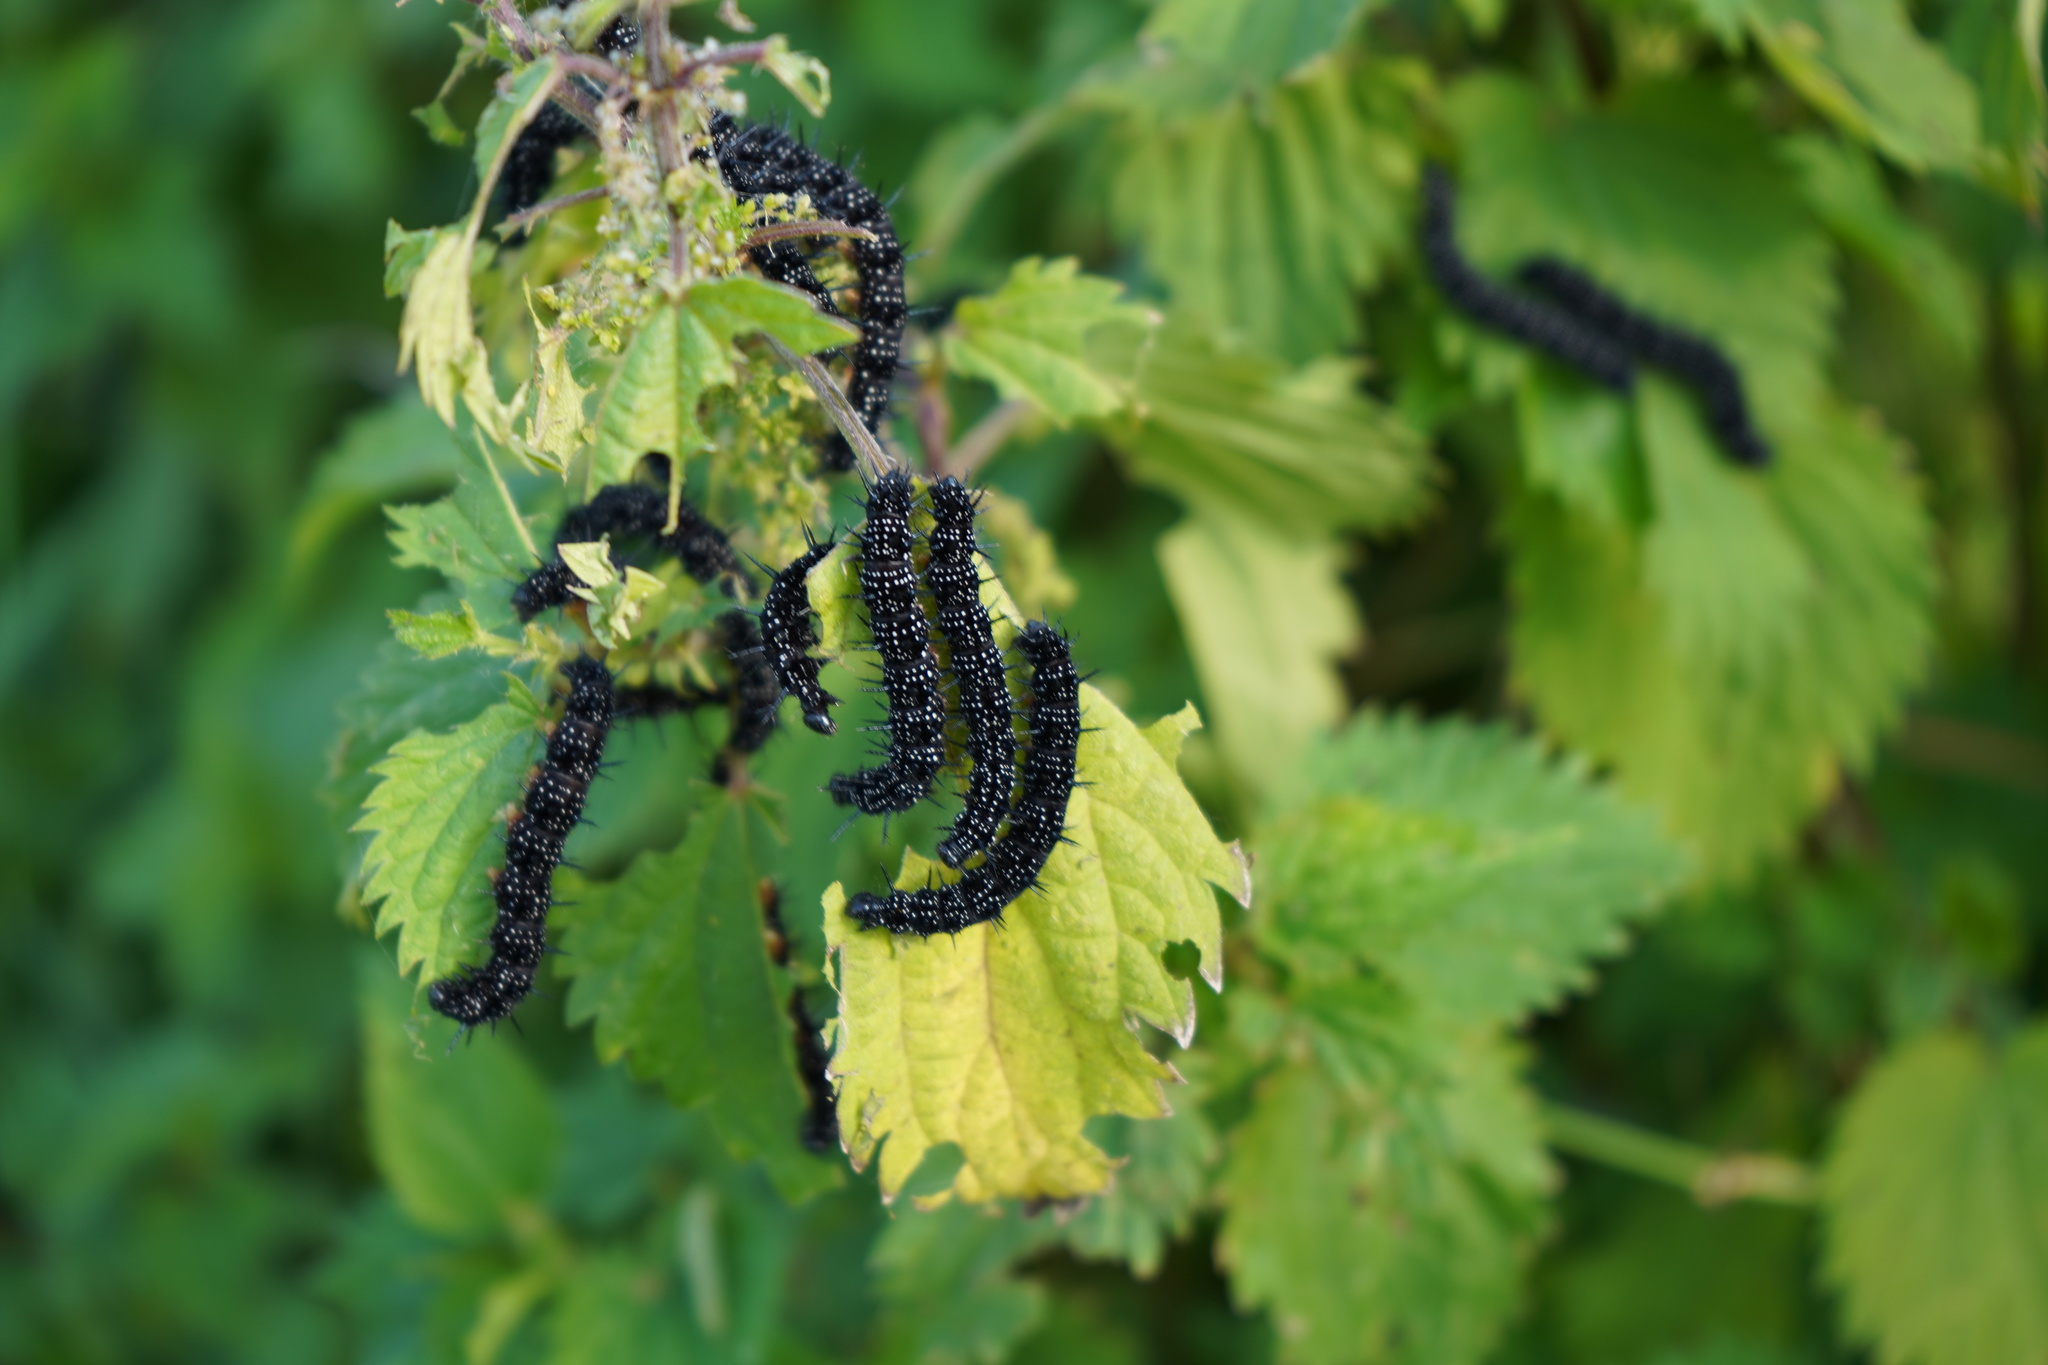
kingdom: Animalia
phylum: Arthropoda
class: Insecta
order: Lepidoptera
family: Nymphalidae
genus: Aglais
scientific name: Aglais io
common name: Peacock
